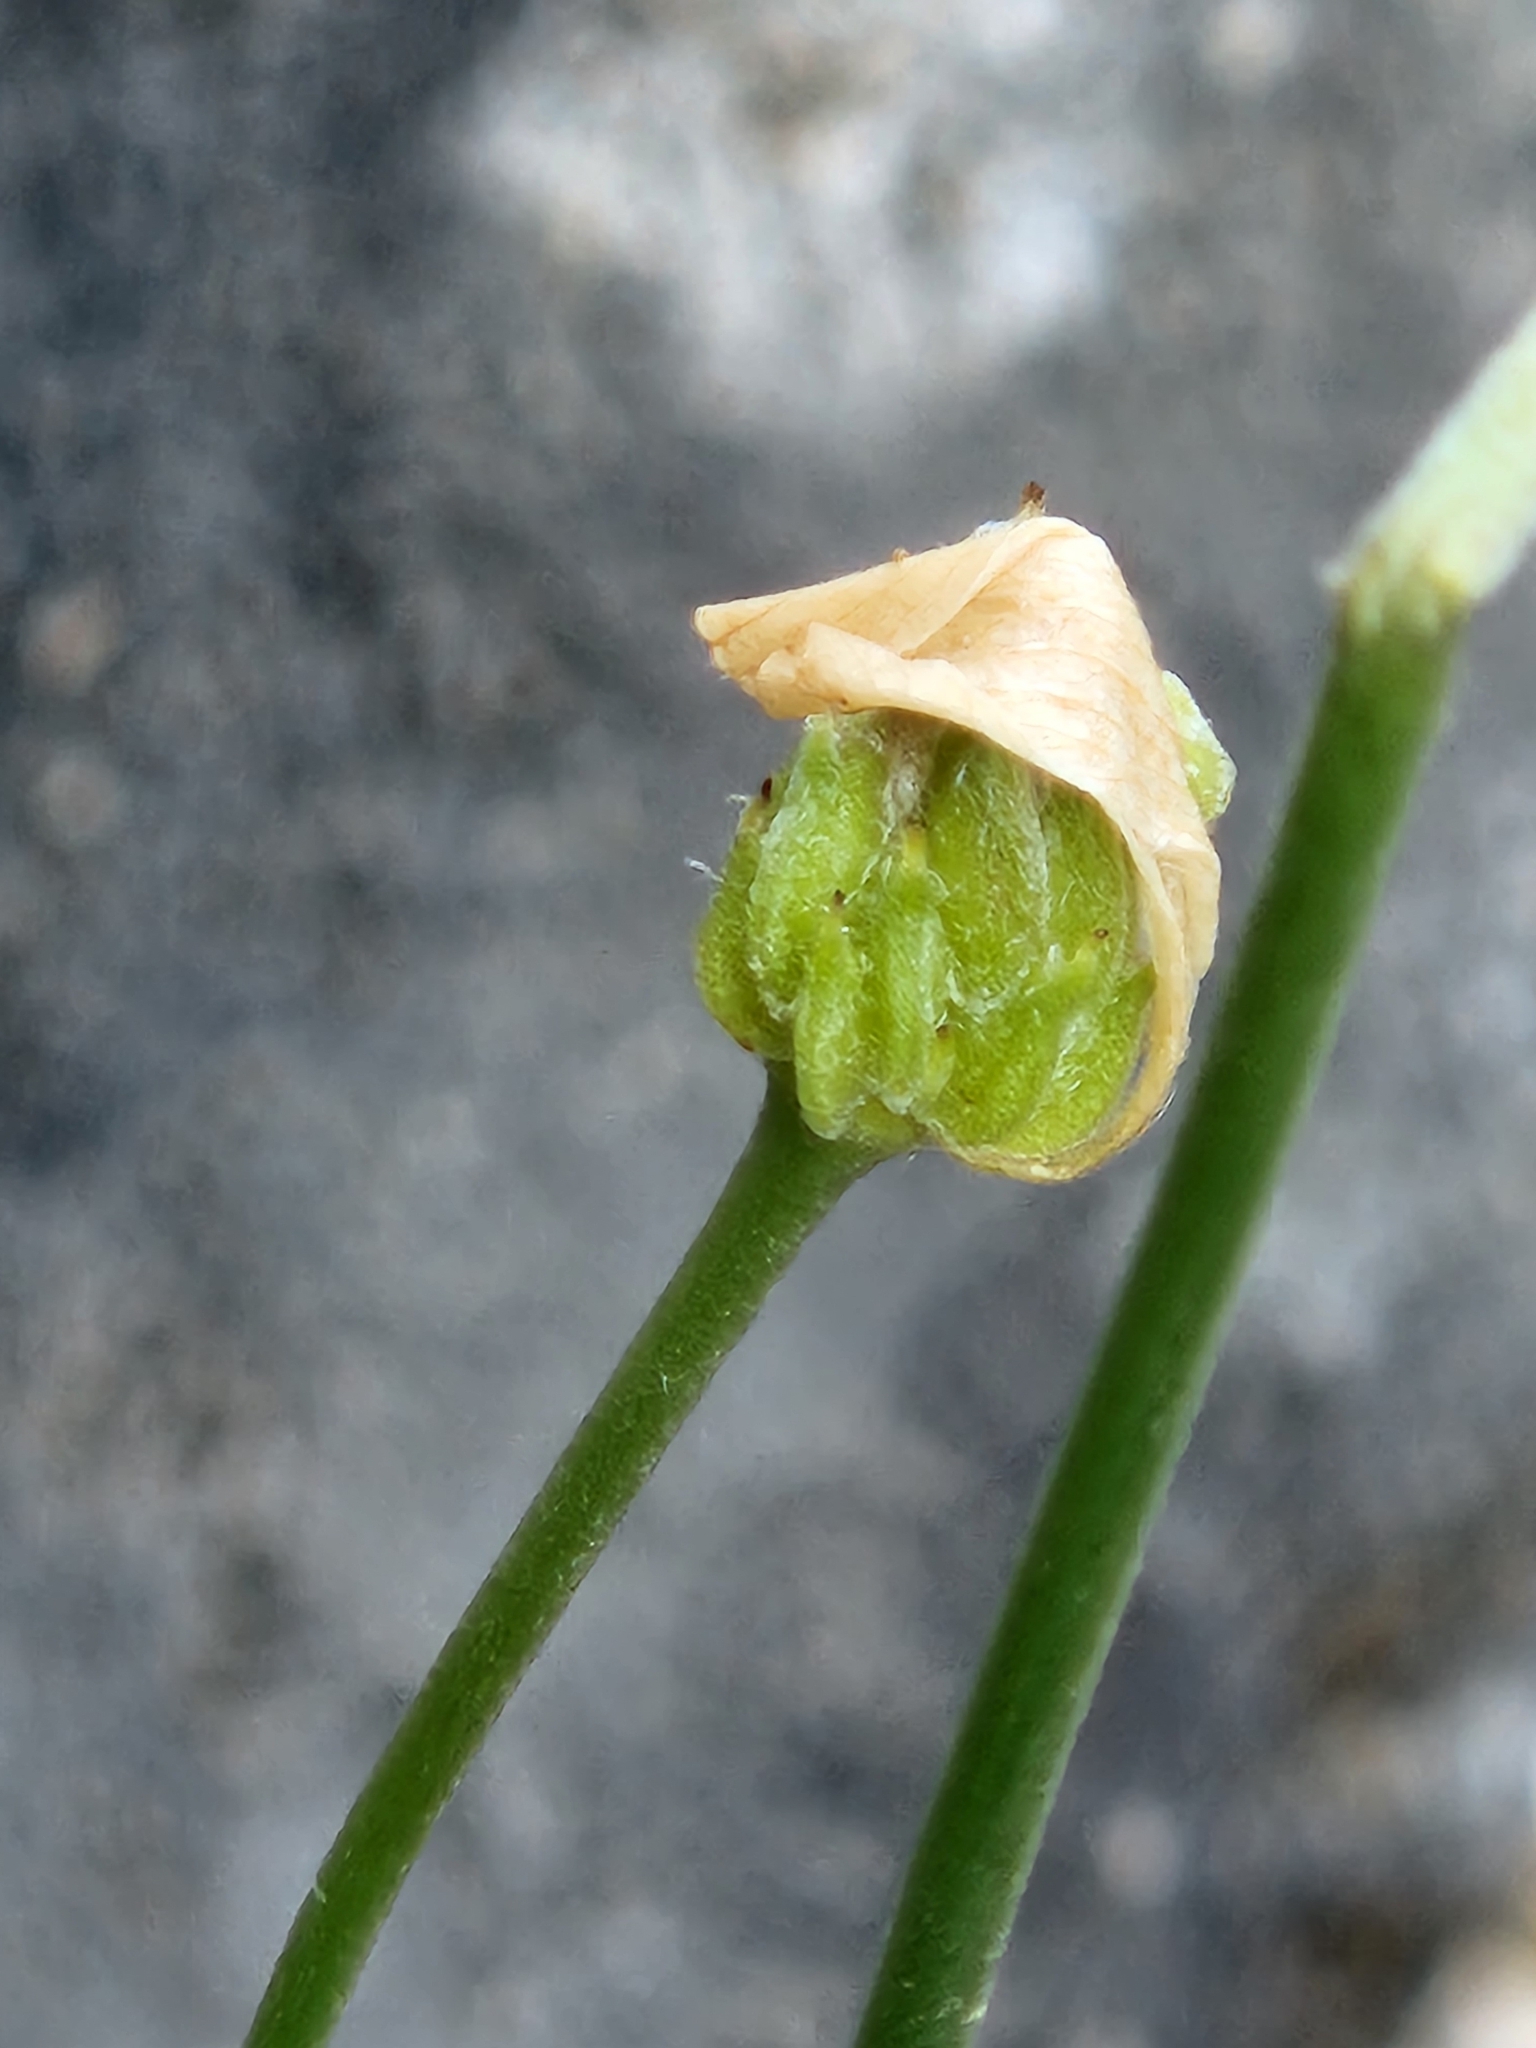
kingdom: Plantae
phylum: Tracheophyta
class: Magnoliopsida
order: Ranunculales
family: Ranunculaceae
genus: Anemone
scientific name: Anemone edwardsiana
